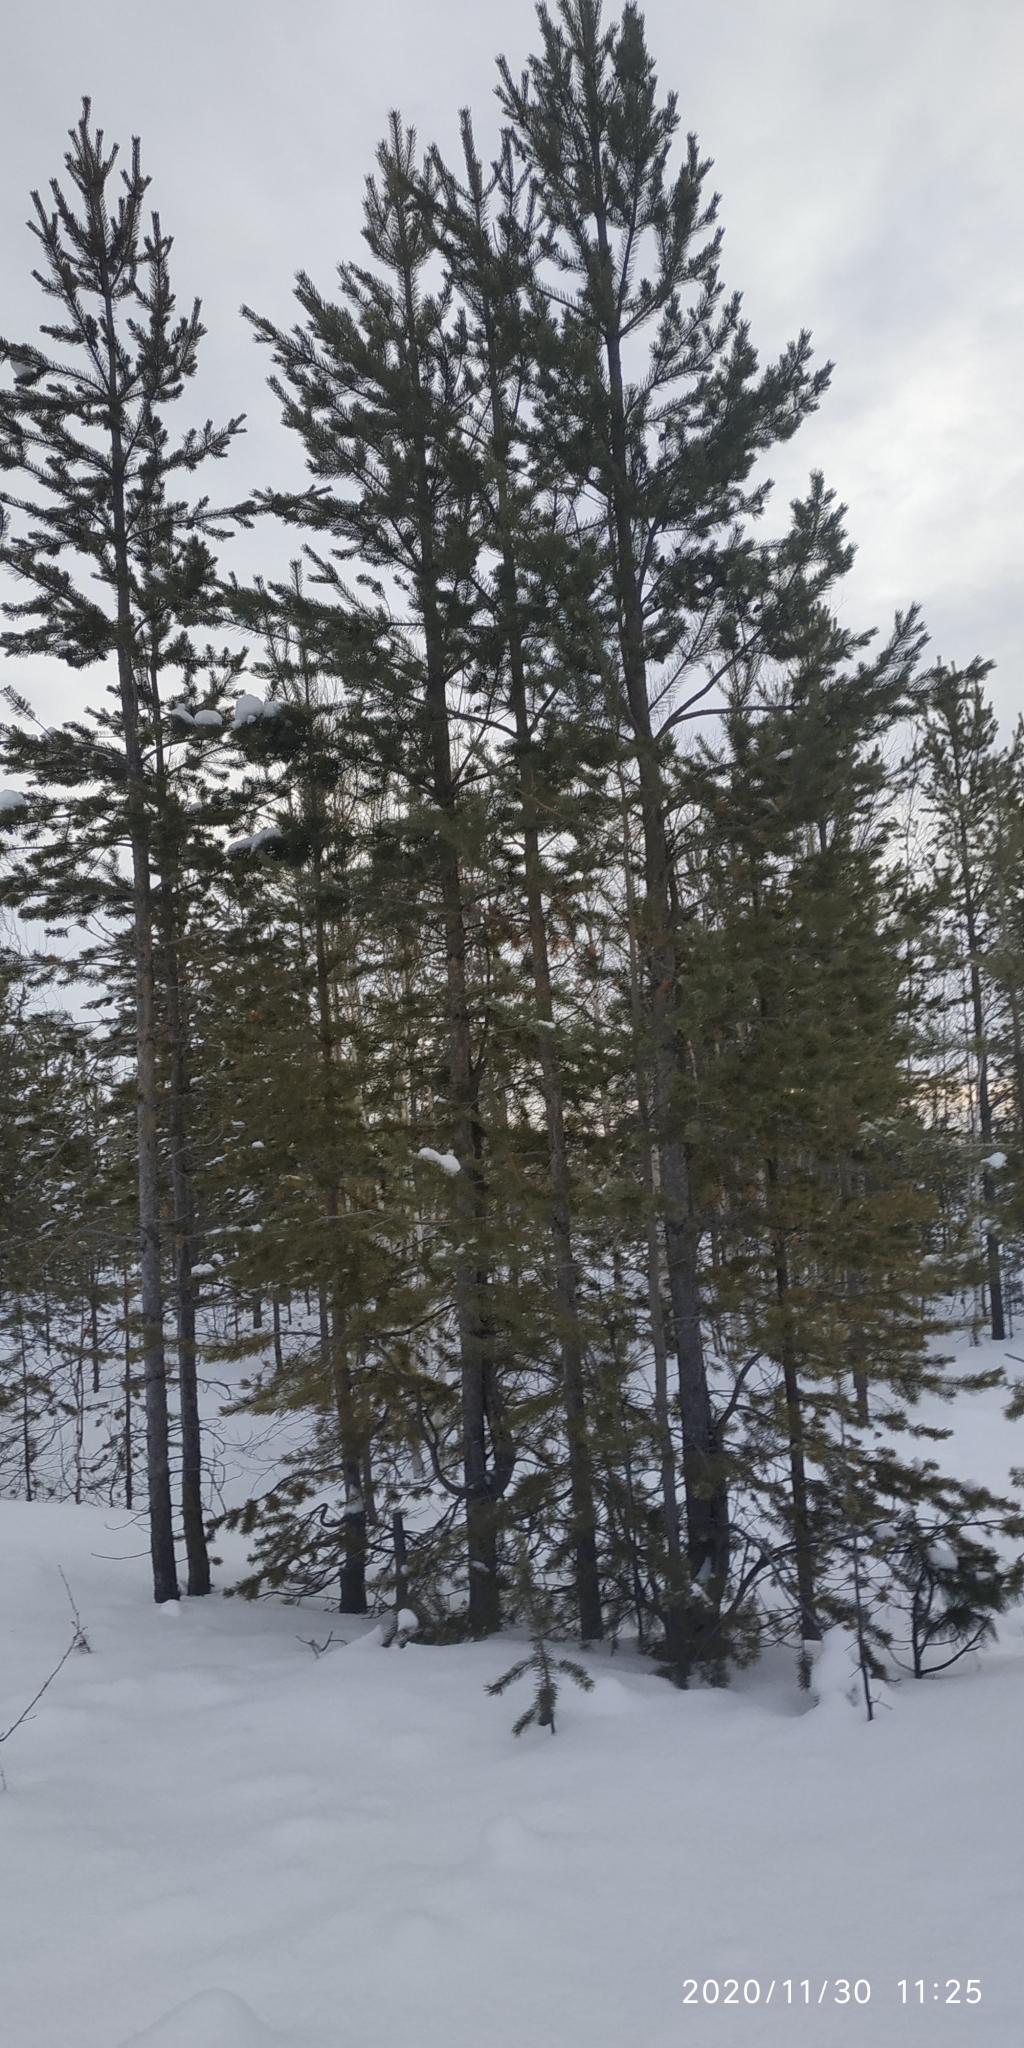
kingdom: Plantae
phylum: Tracheophyta
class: Pinopsida
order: Pinales
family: Pinaceae
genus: Pinus
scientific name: Pinus sylvestris
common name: Scots pine
